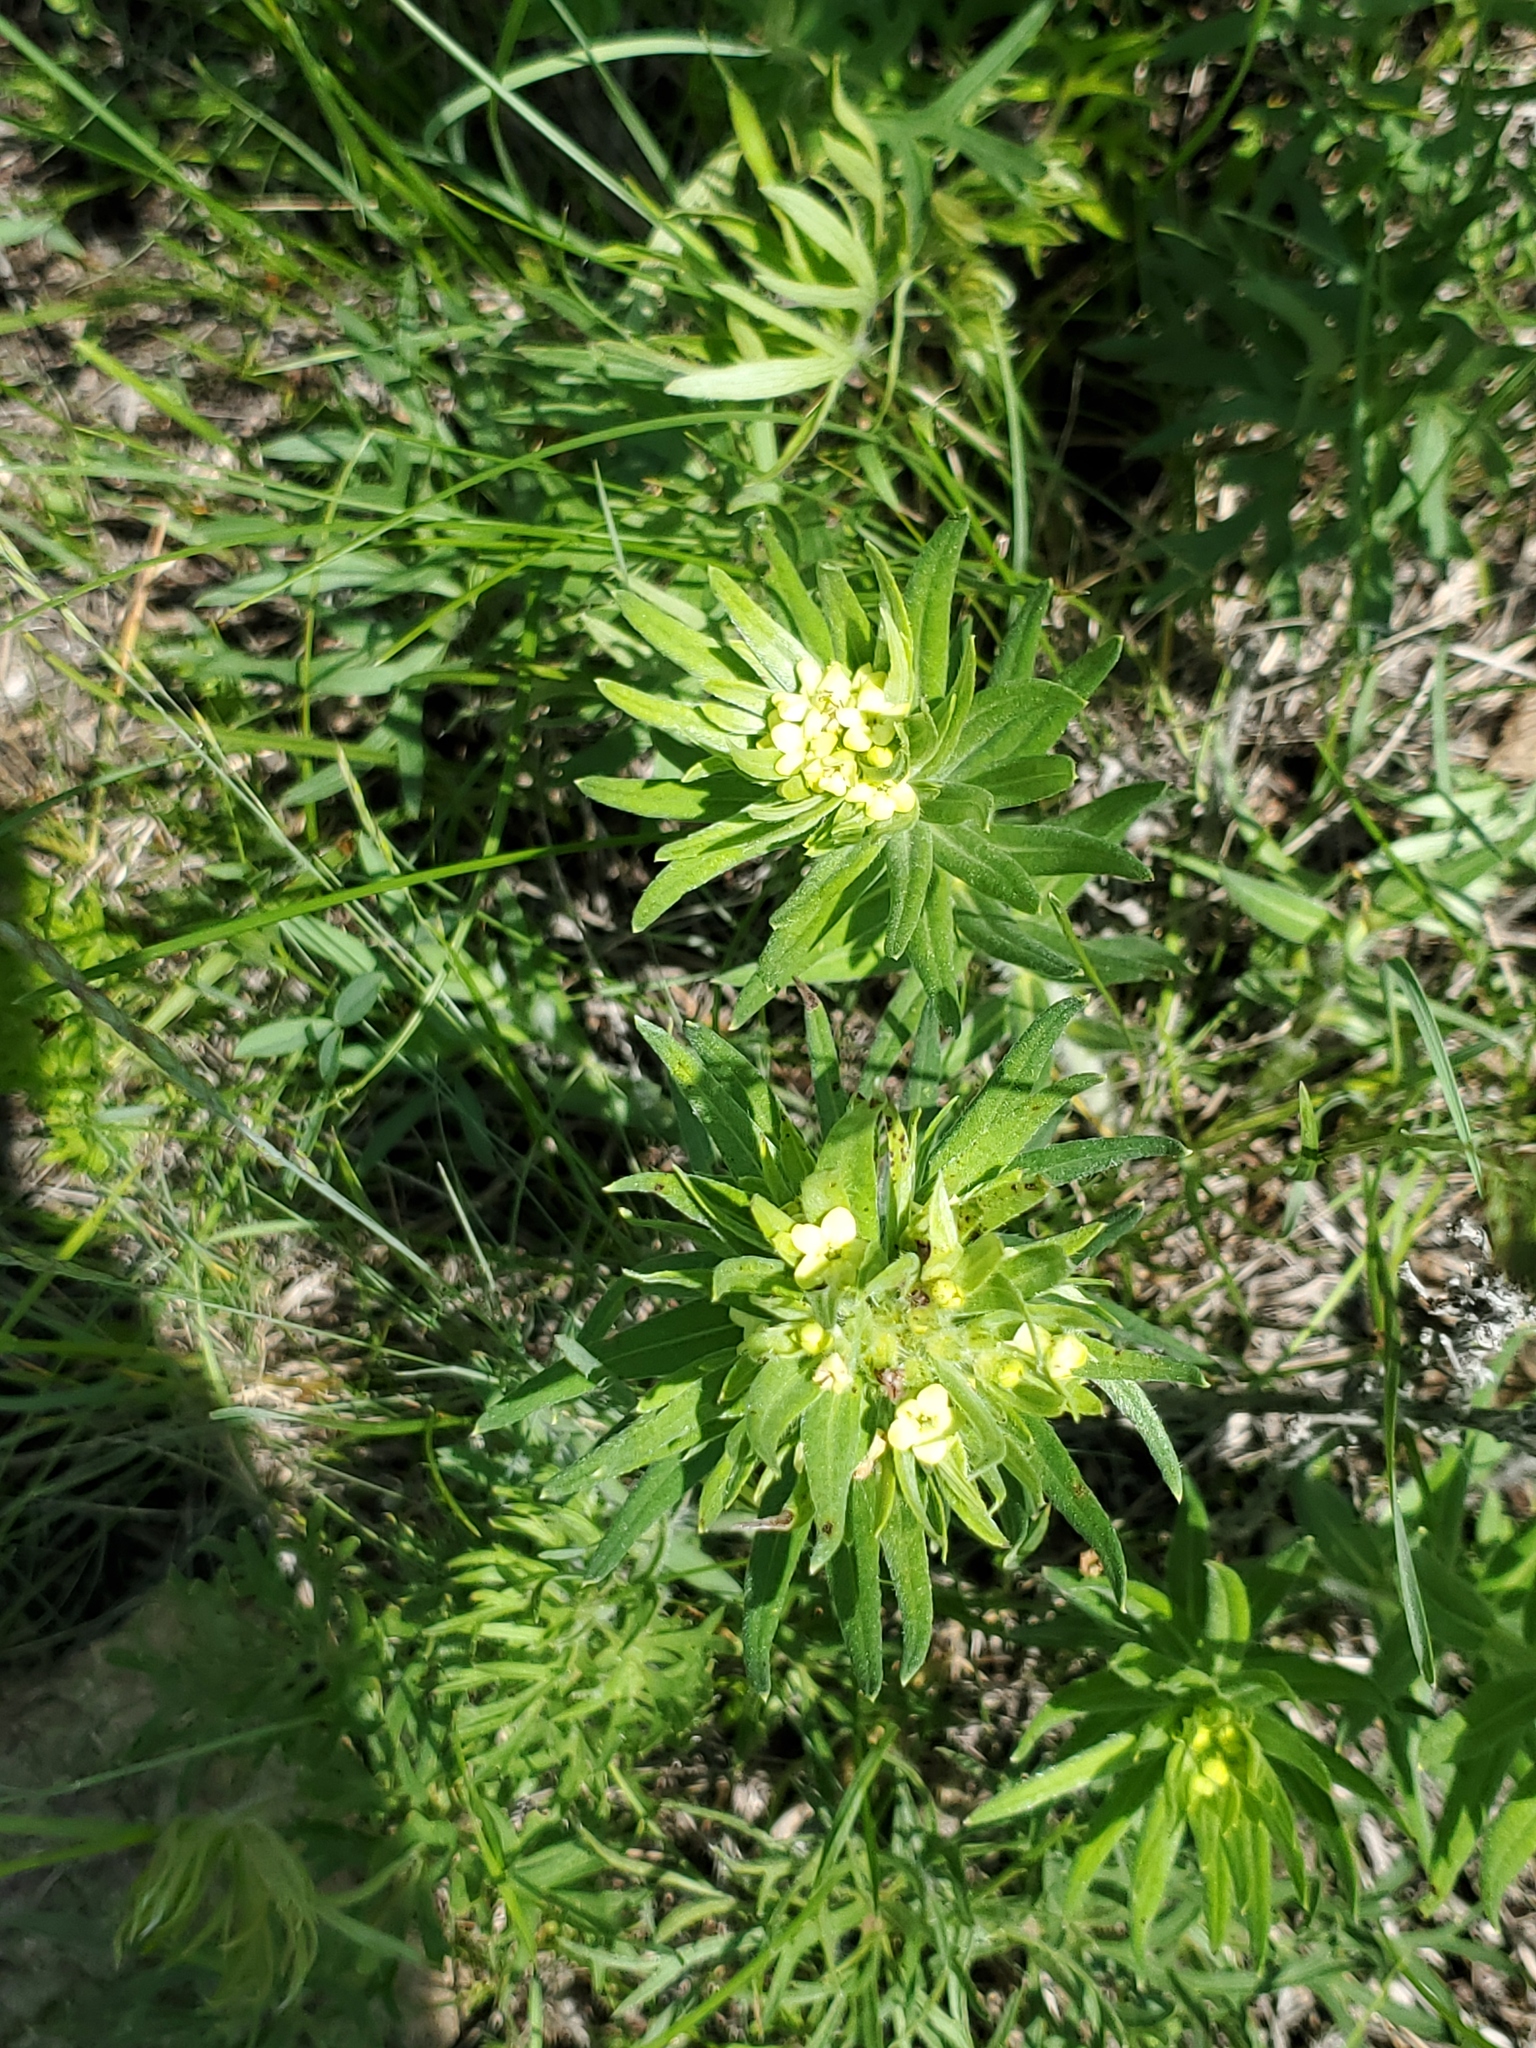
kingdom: Plantae
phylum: Tracheophyta
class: Magnoliopsida
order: Boraginales
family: Boraginaceae
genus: Lithospermum
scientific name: Lithospermum ruderale
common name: Western gromwell
